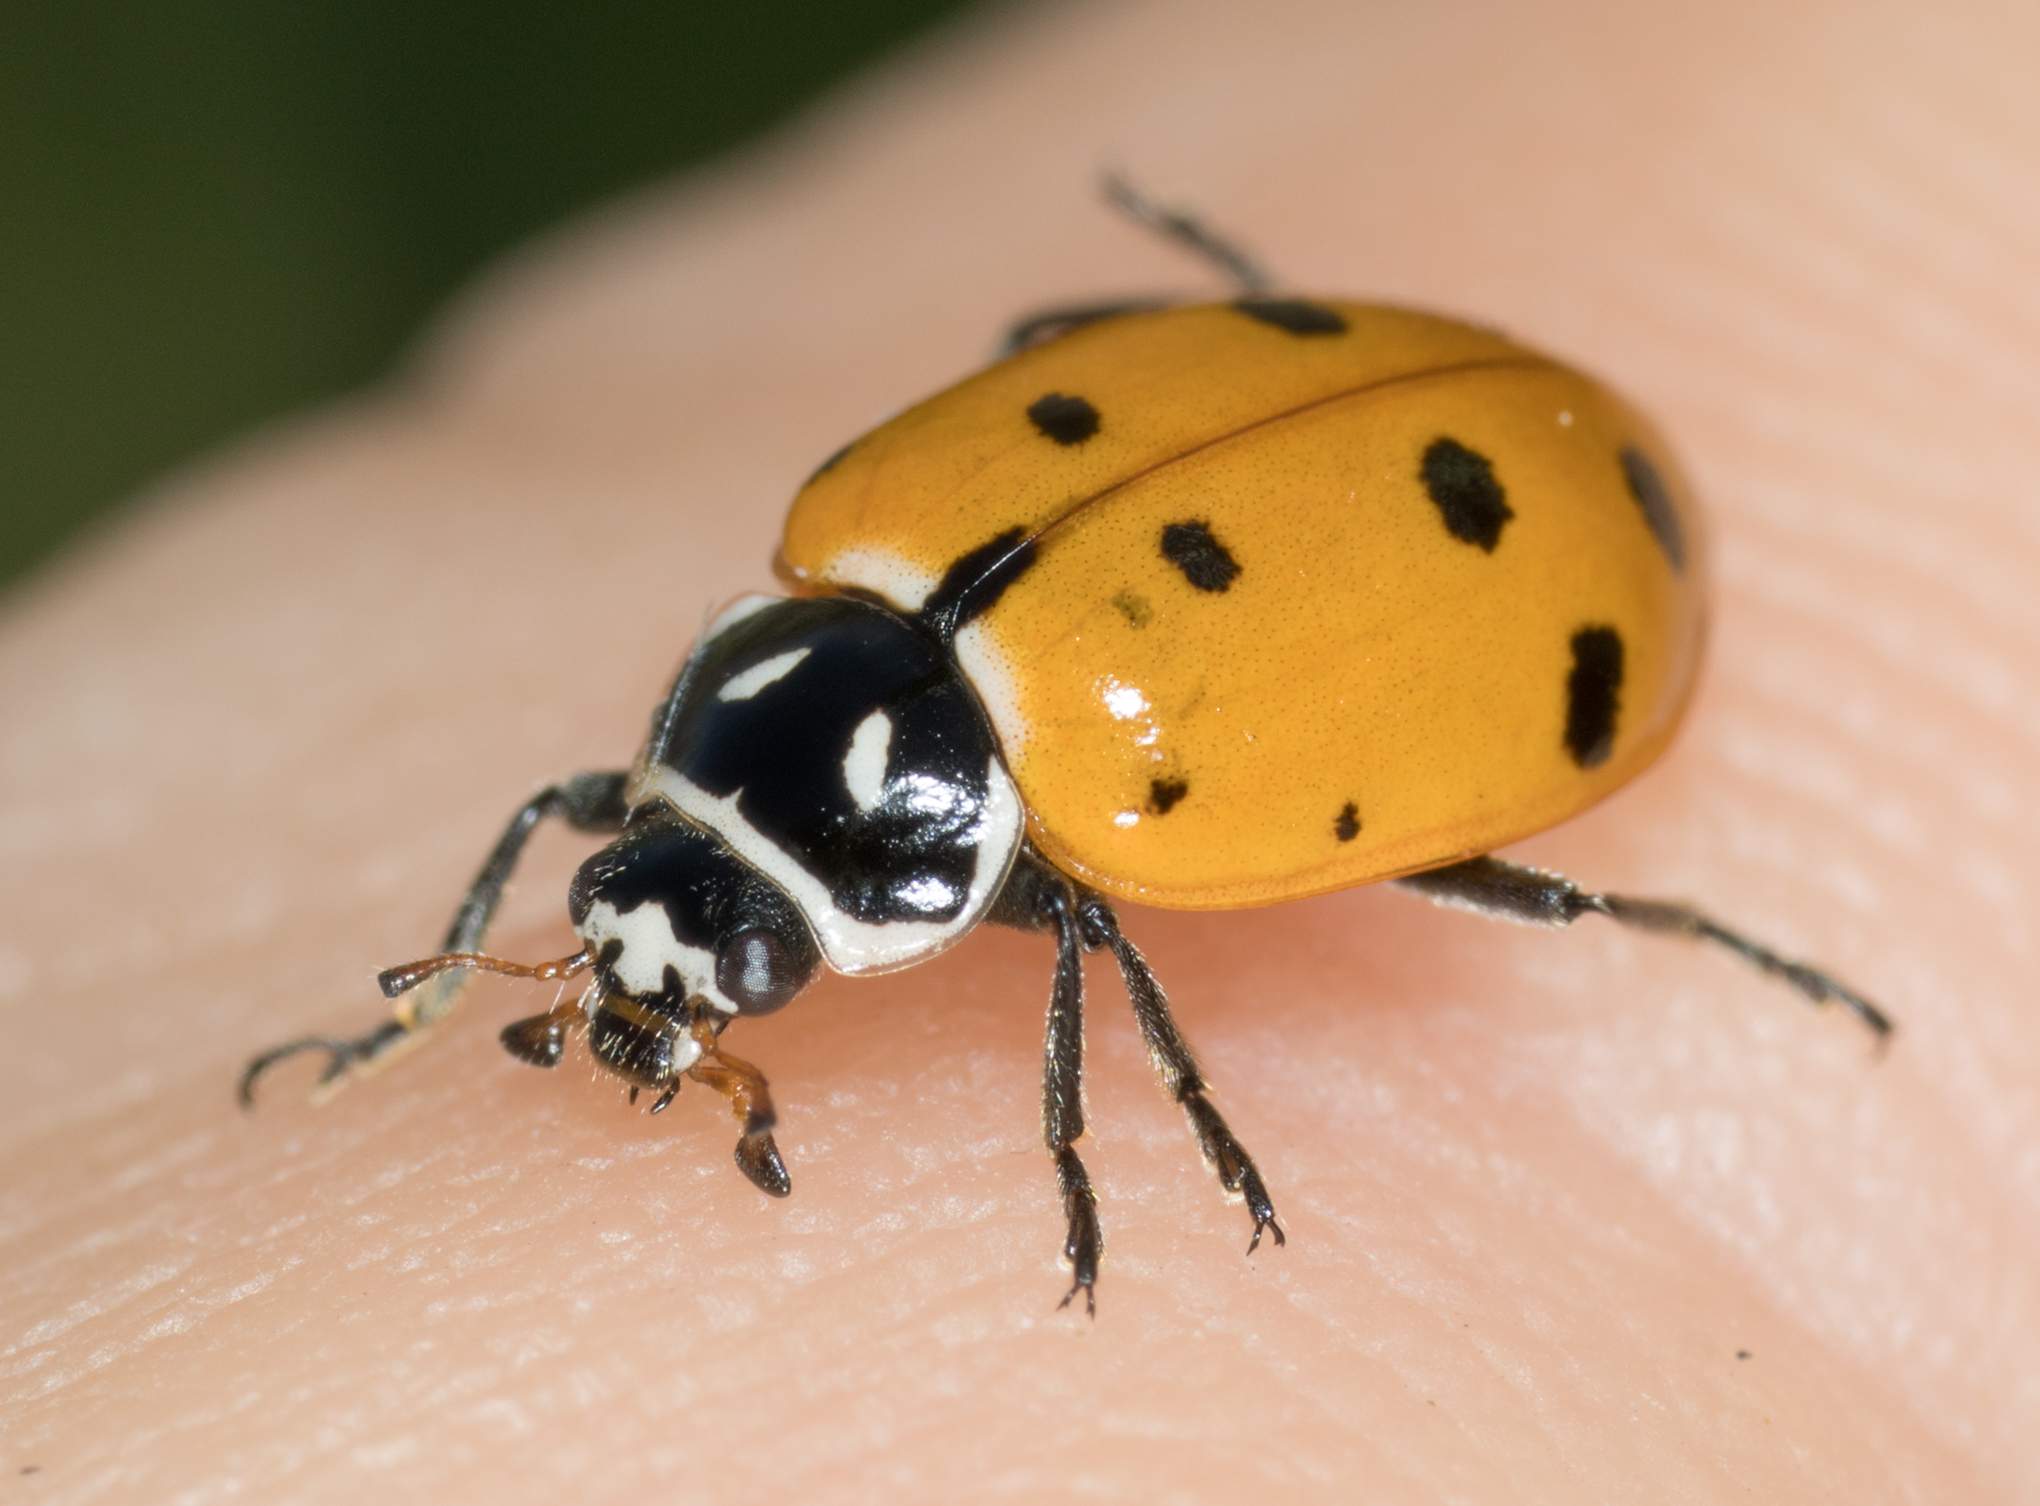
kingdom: Animalia
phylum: Arthropoda
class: Insecta
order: Coleoptera
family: Coccinellidae
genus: Hippodamia
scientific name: Hippodamia convergens
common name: Convergent lady beetle
